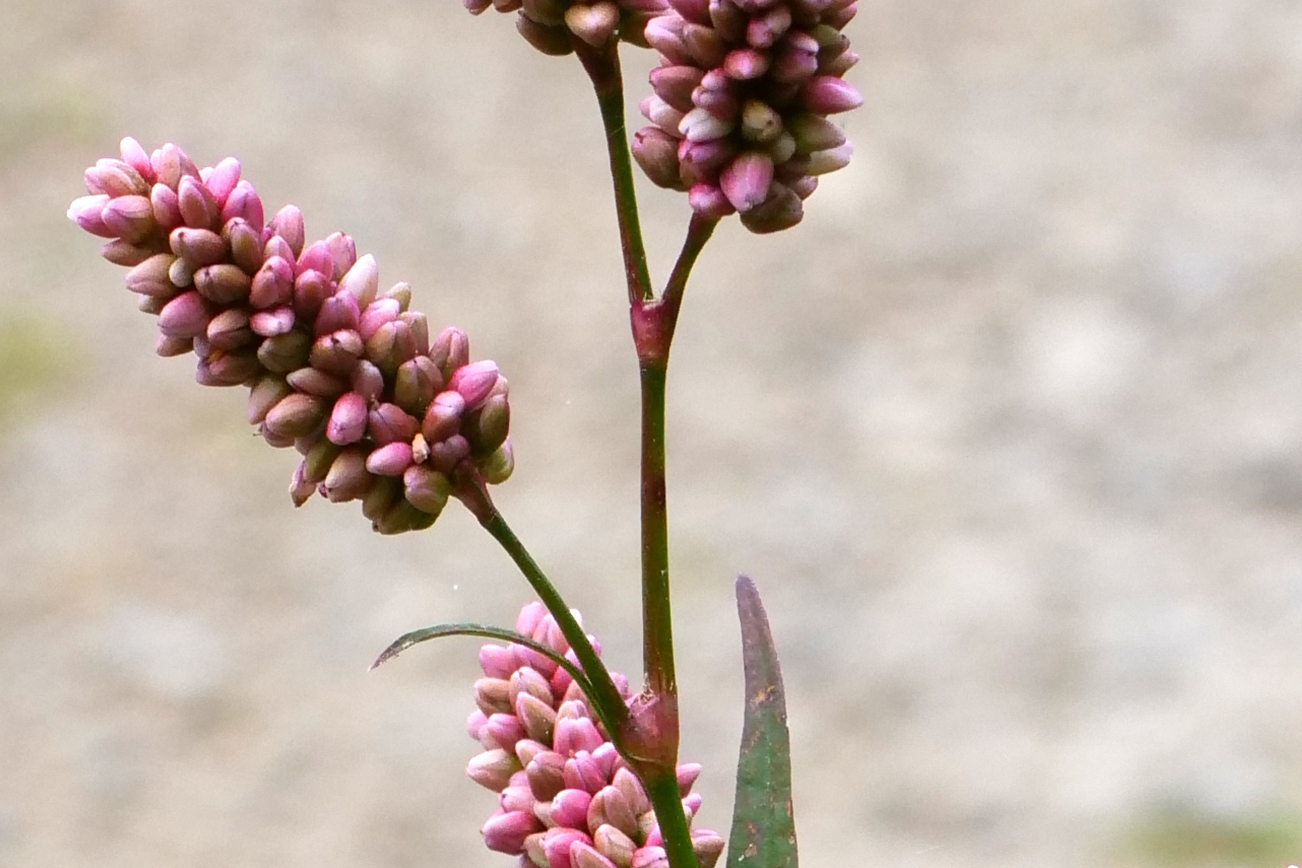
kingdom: Plantae
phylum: Tracheophyta
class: Magnoliopsida
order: Caryophyllales
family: Polygonaceae
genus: Persicaria
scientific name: Persicaria maculosa
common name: Redshank
